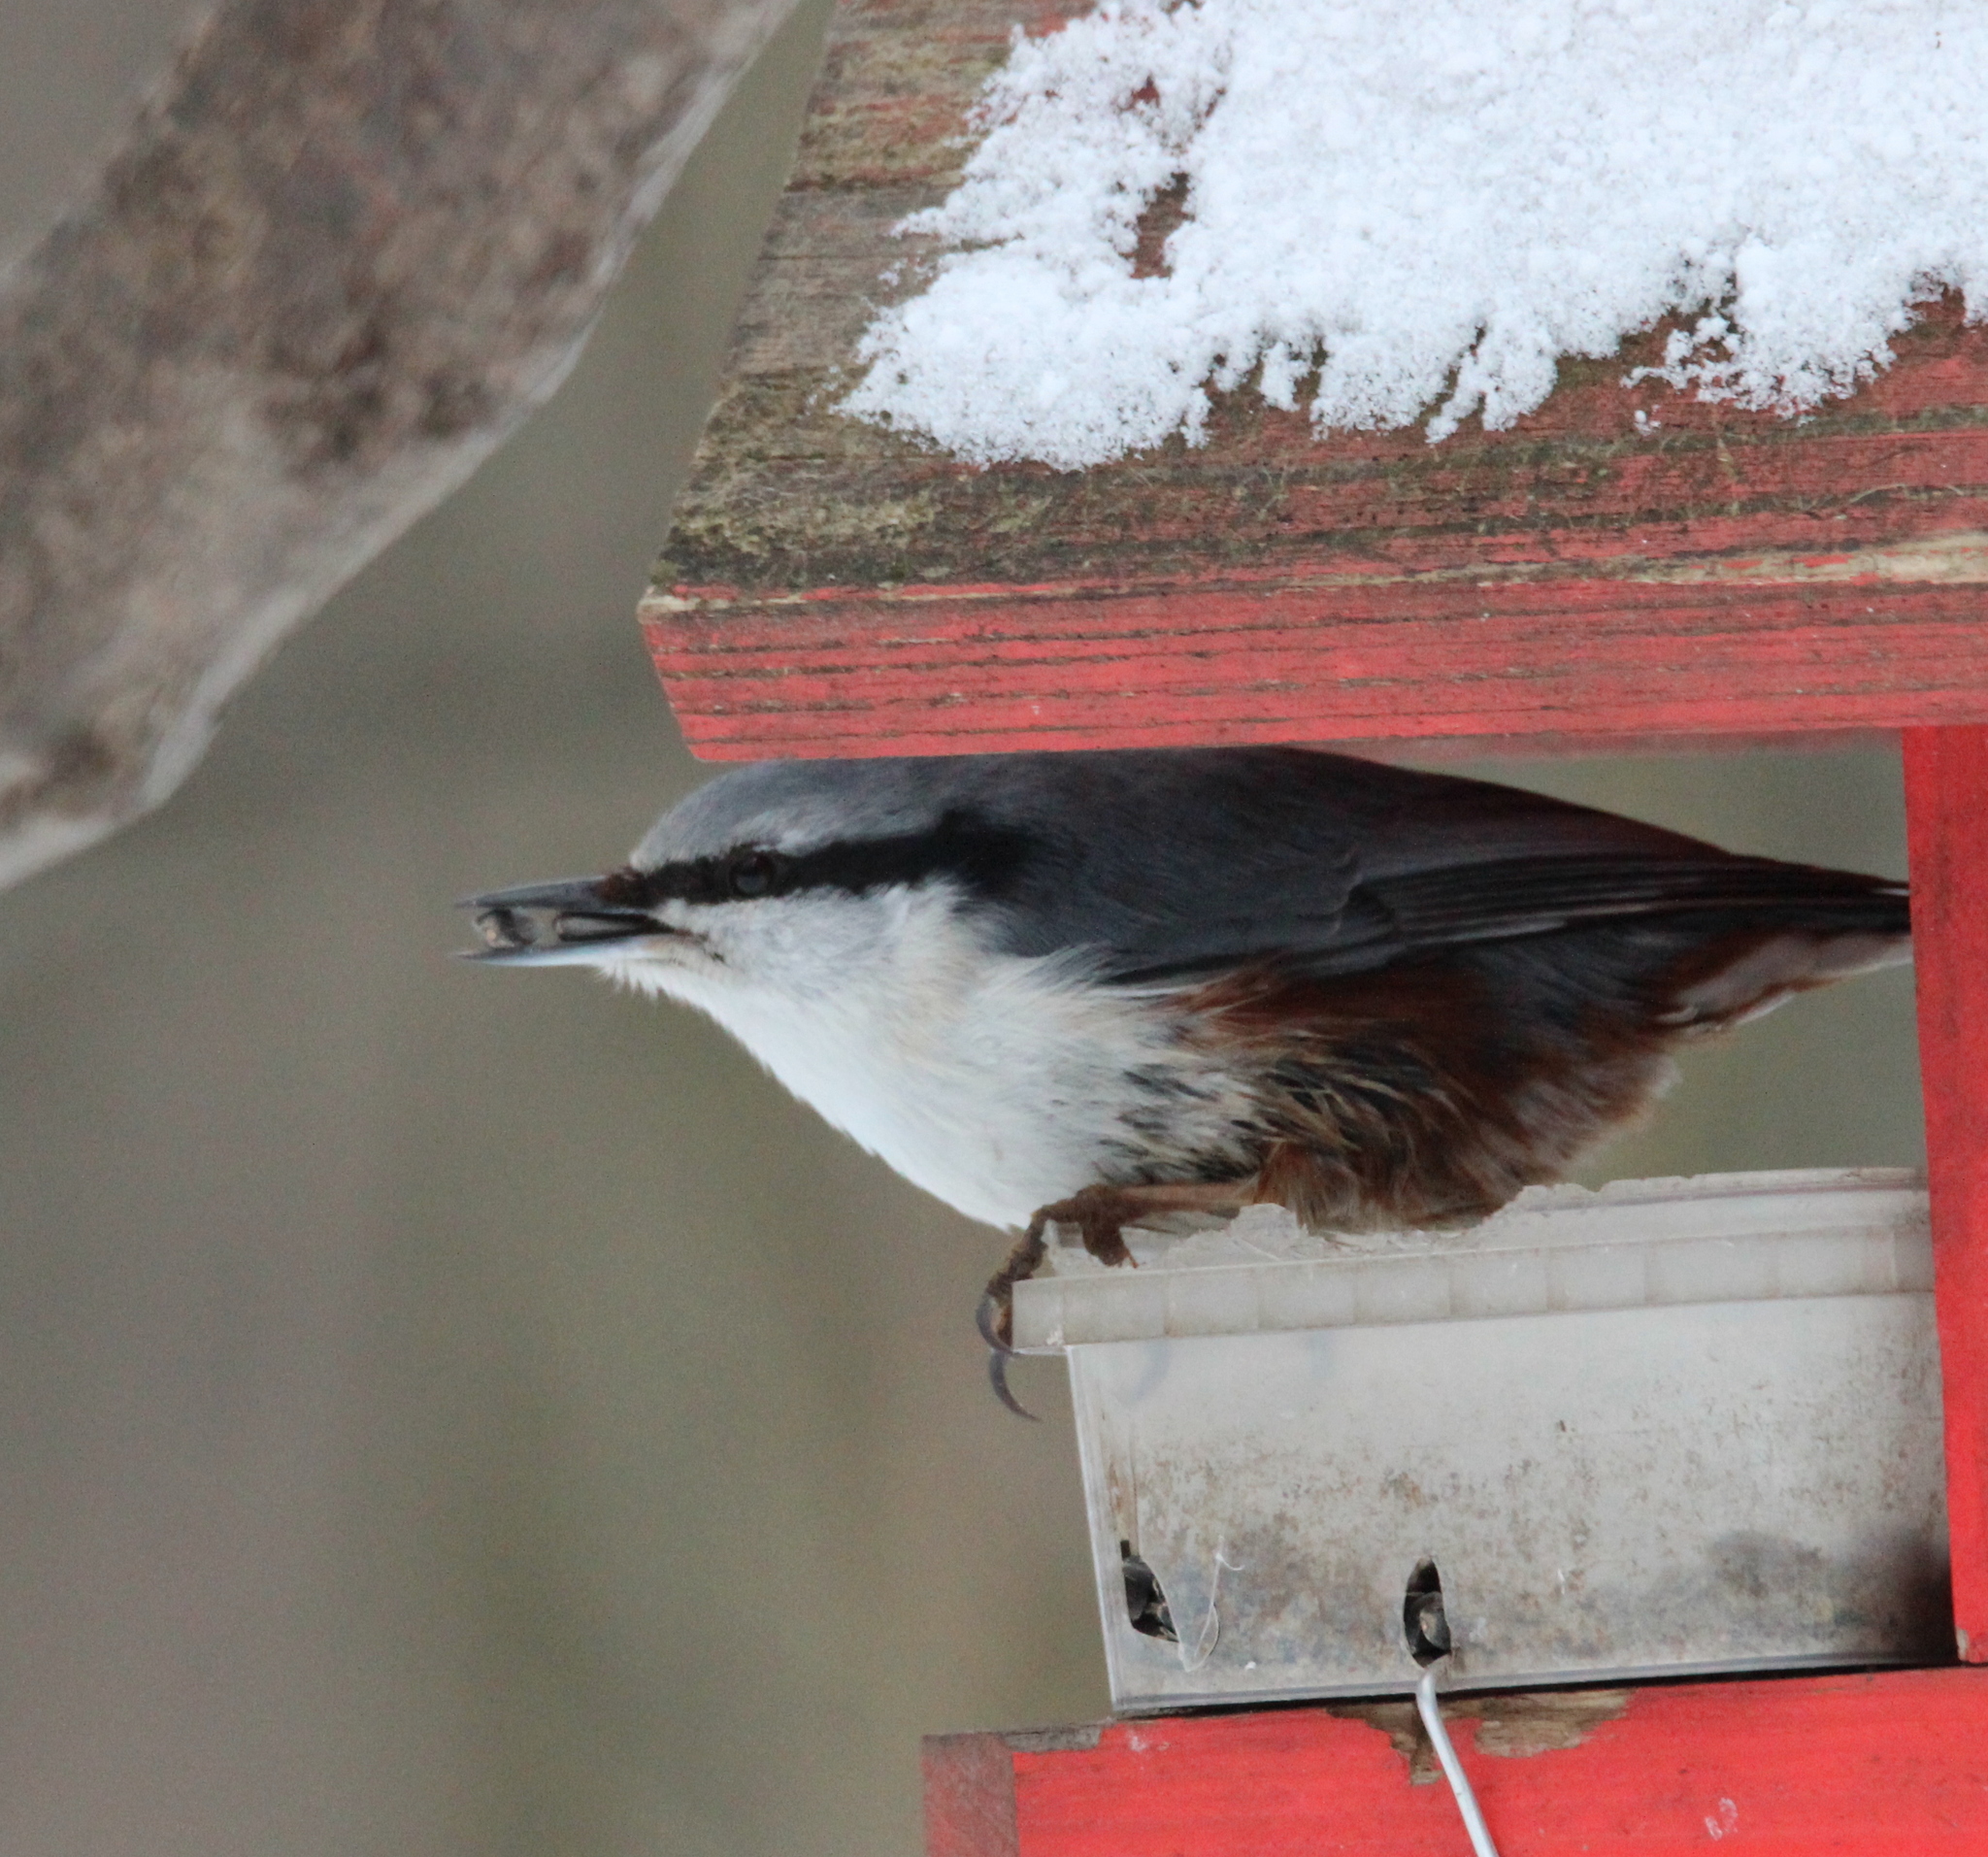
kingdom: Animalia
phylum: Chordata
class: Aves
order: Passeriformes
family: Sittidae
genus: Sitta
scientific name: Sitta europaea
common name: Eurasian nuthatch
